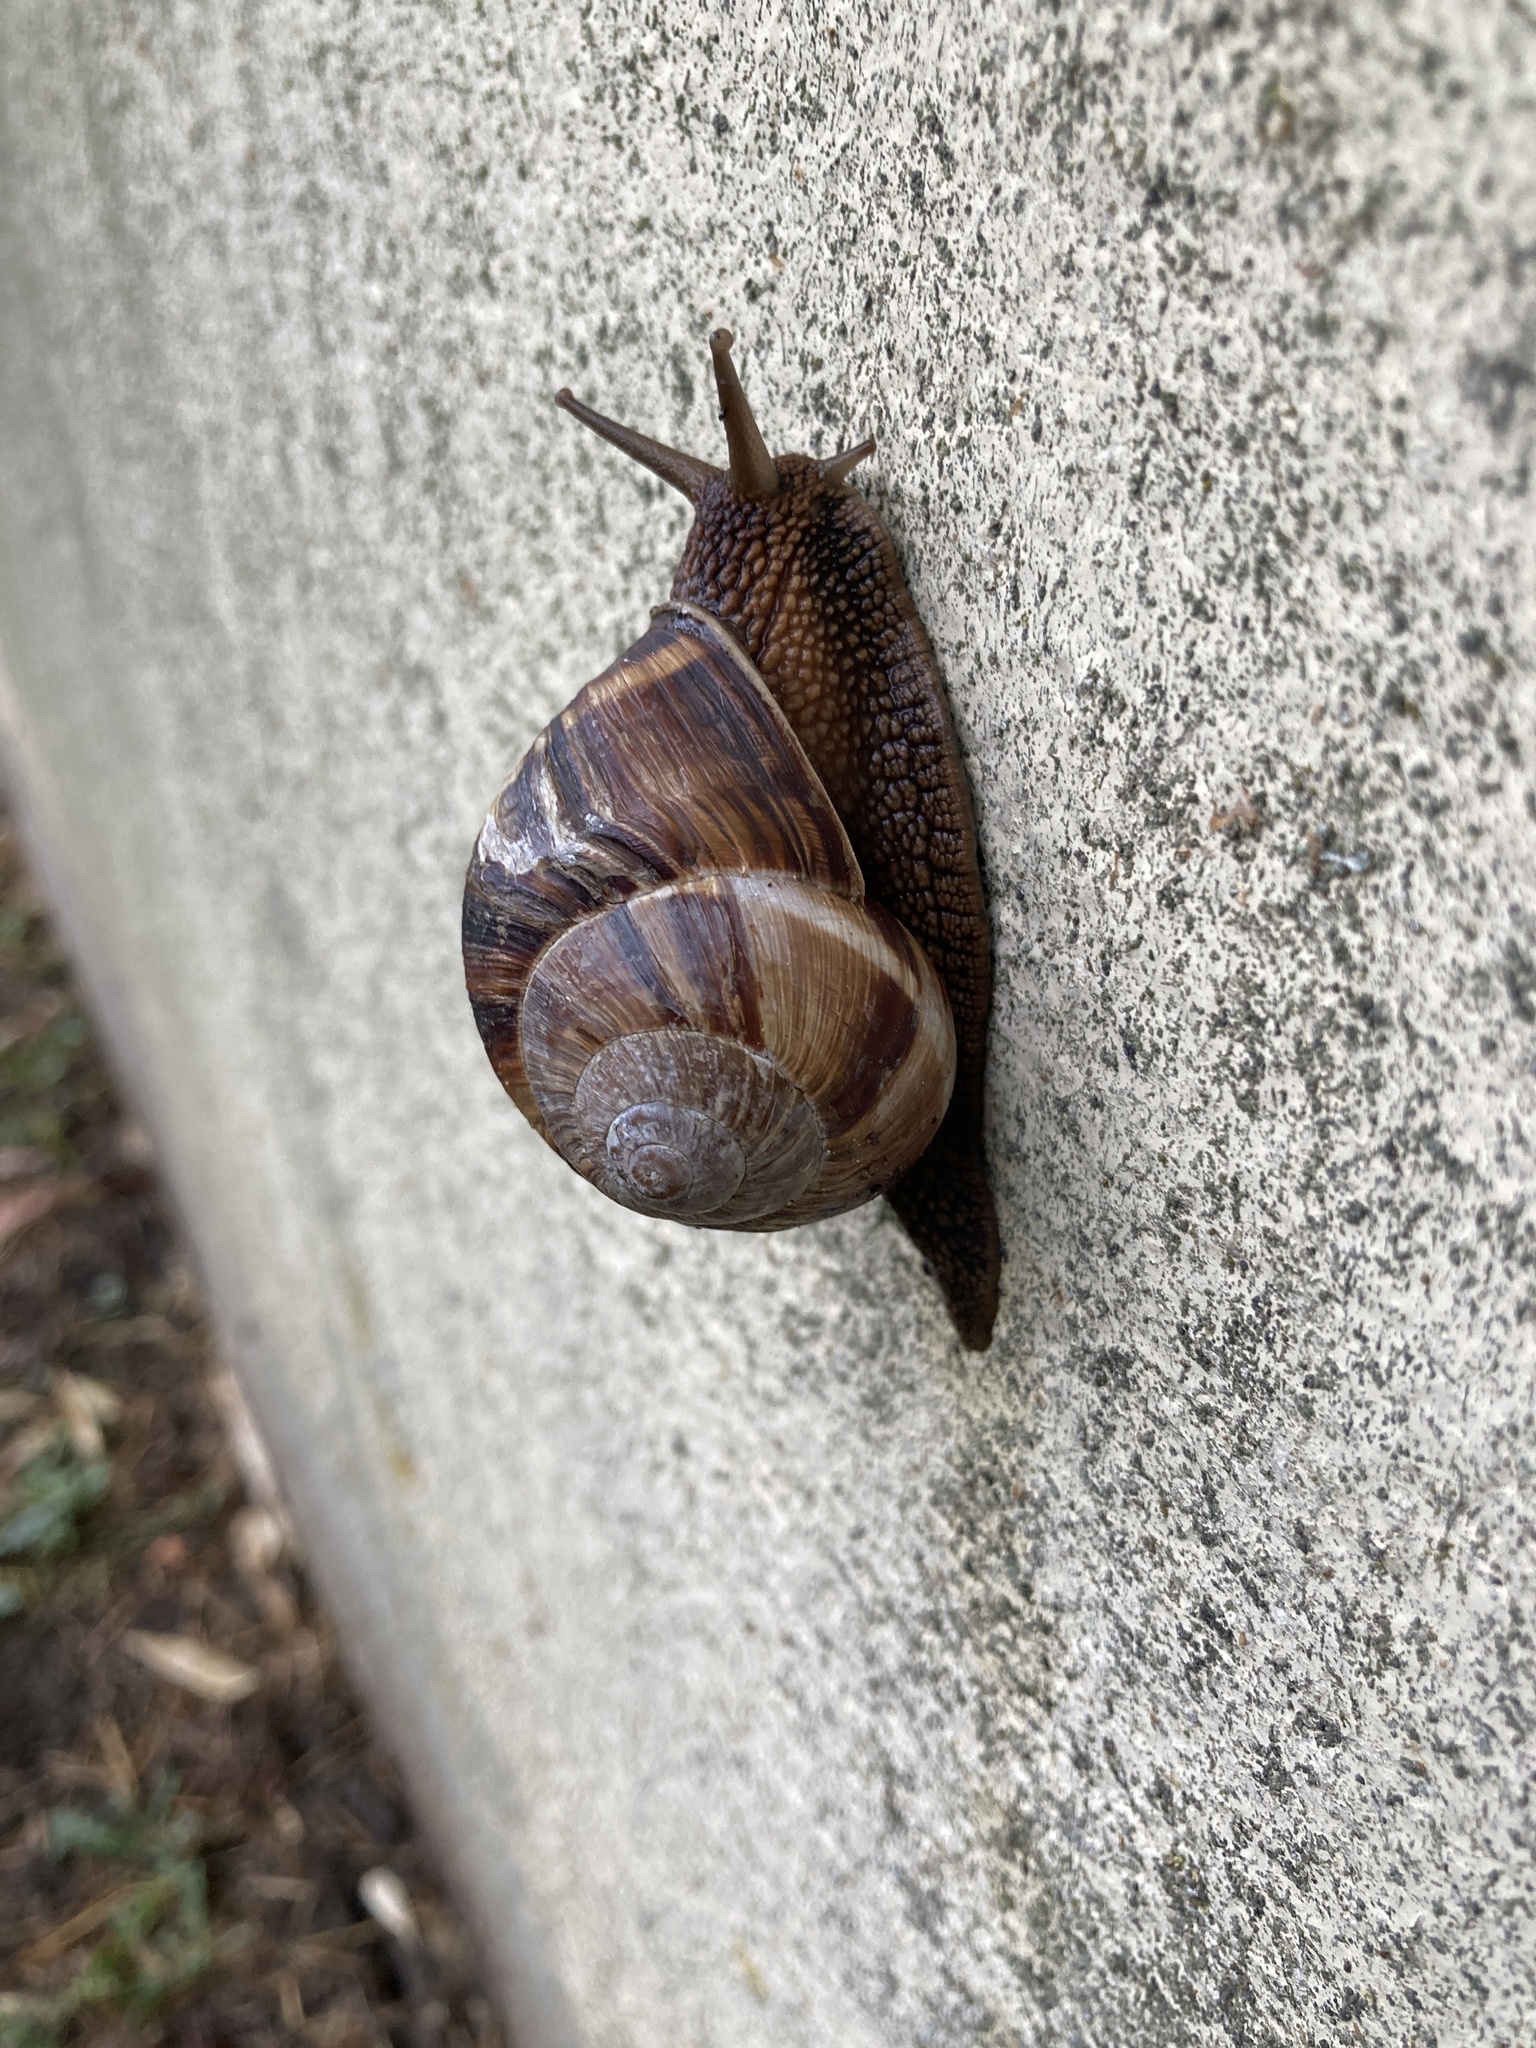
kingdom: Animalia
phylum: Mollusca
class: Gastropoda
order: Stylommatophora
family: Helicidae
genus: Helix
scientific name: Helix lucorum
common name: Turkish snail
